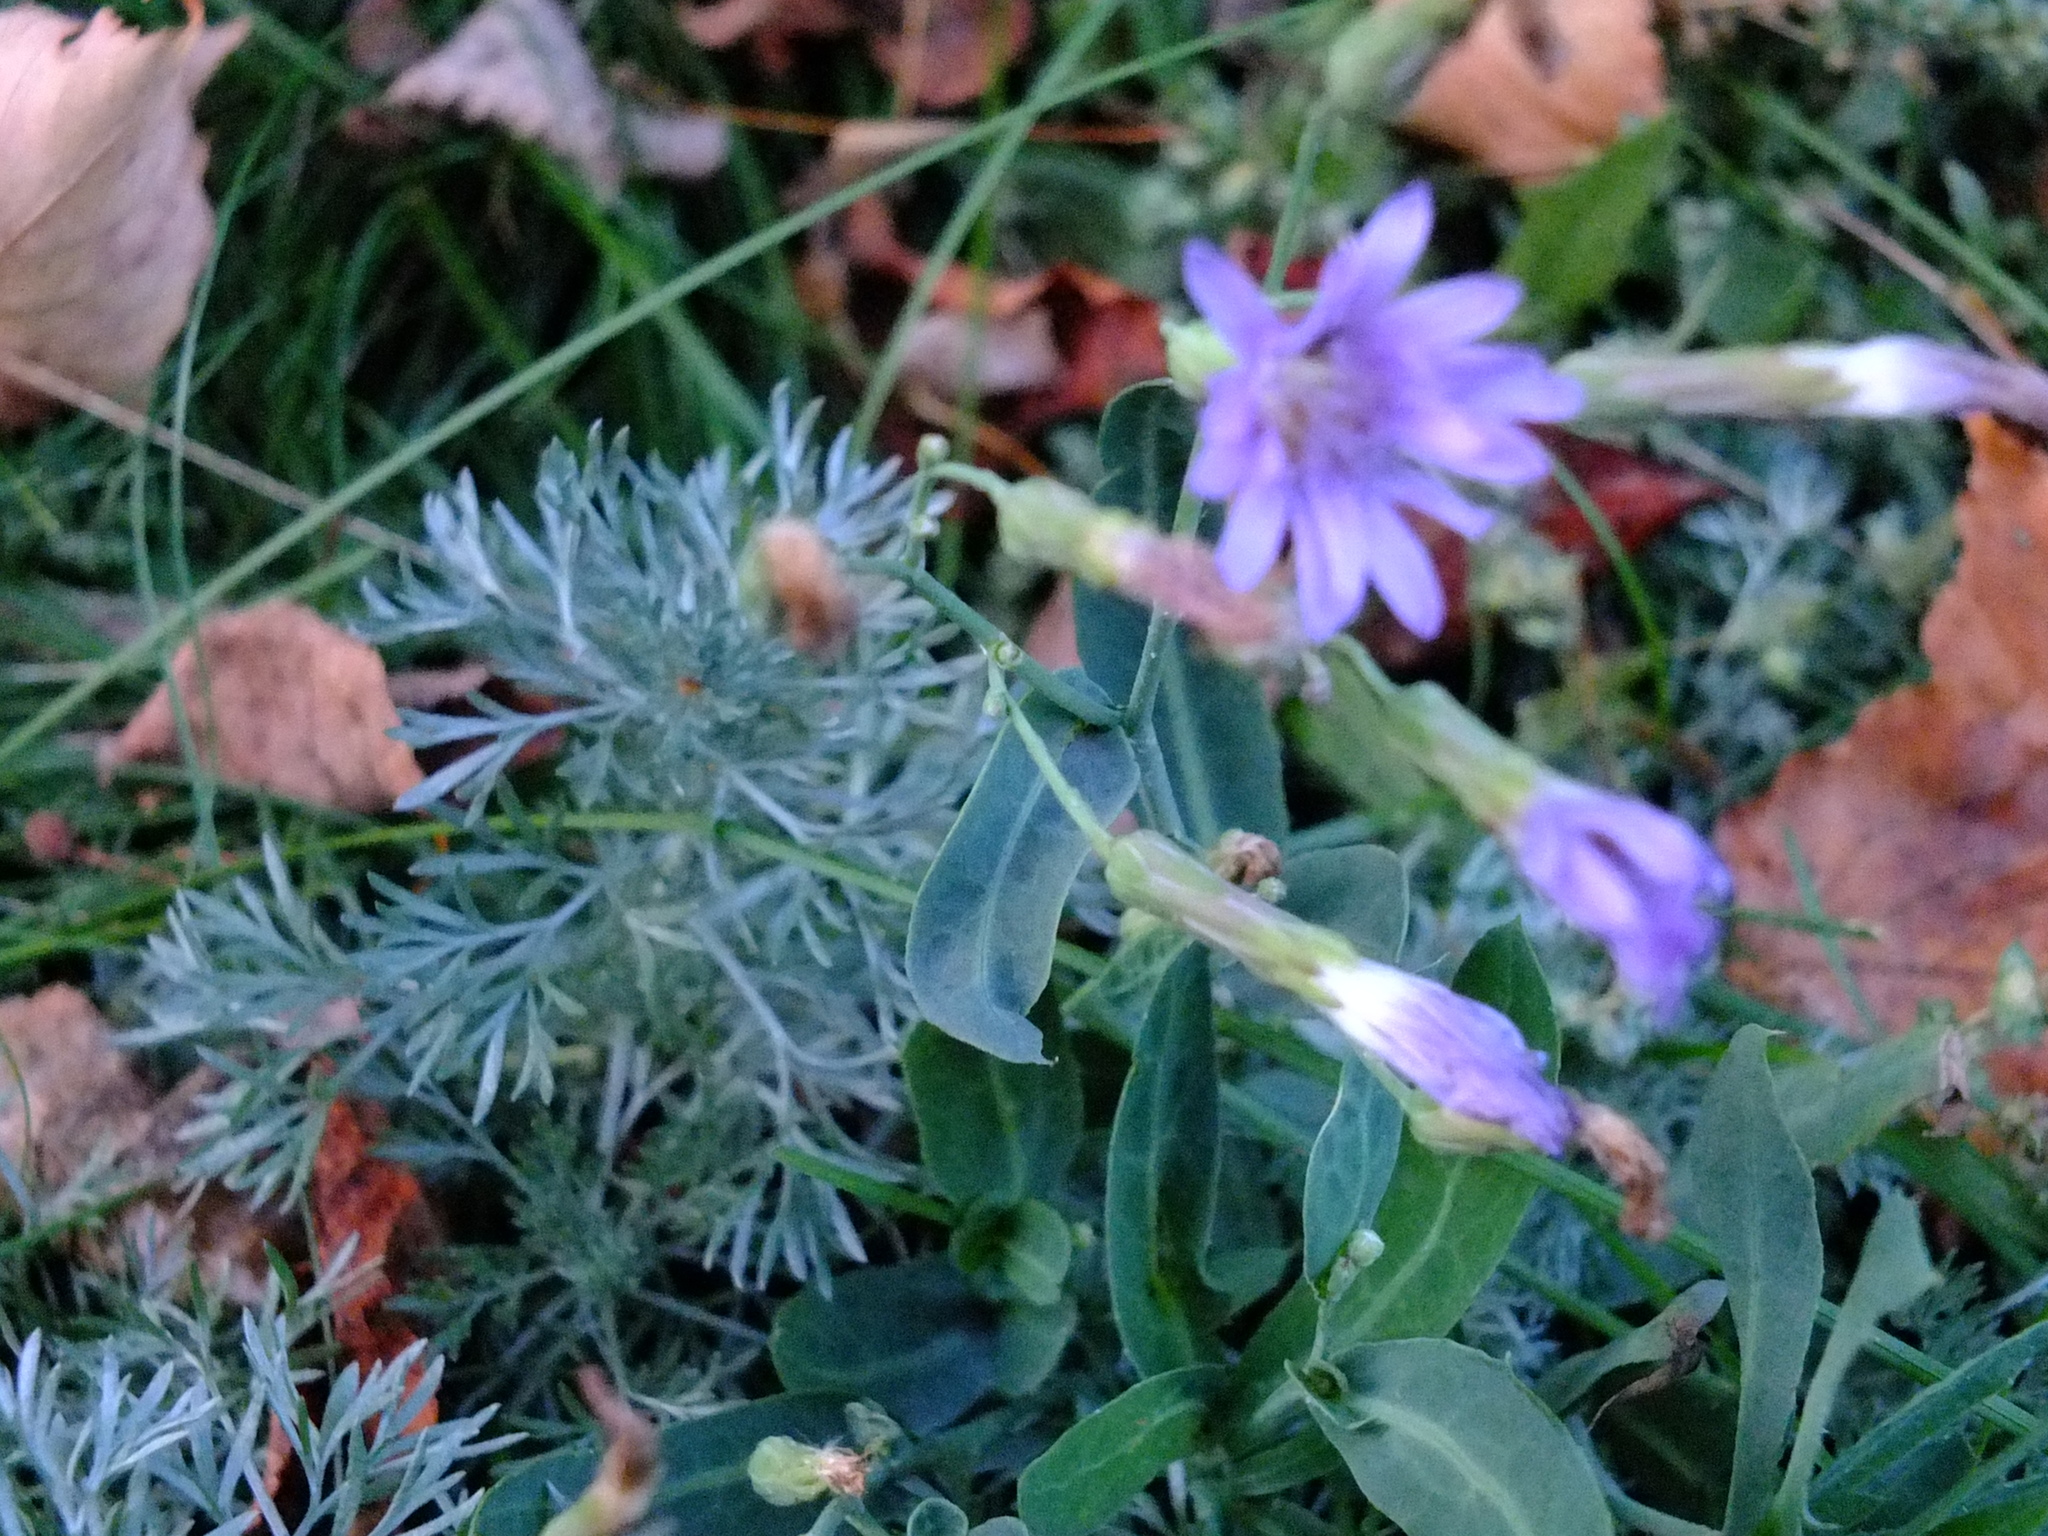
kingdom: Plantae
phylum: Tracheophyta
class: Magnoliopsida
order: Asterales
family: Asteraceae
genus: Lactuca
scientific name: Lactuca tatarica
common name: Blue lettuce
